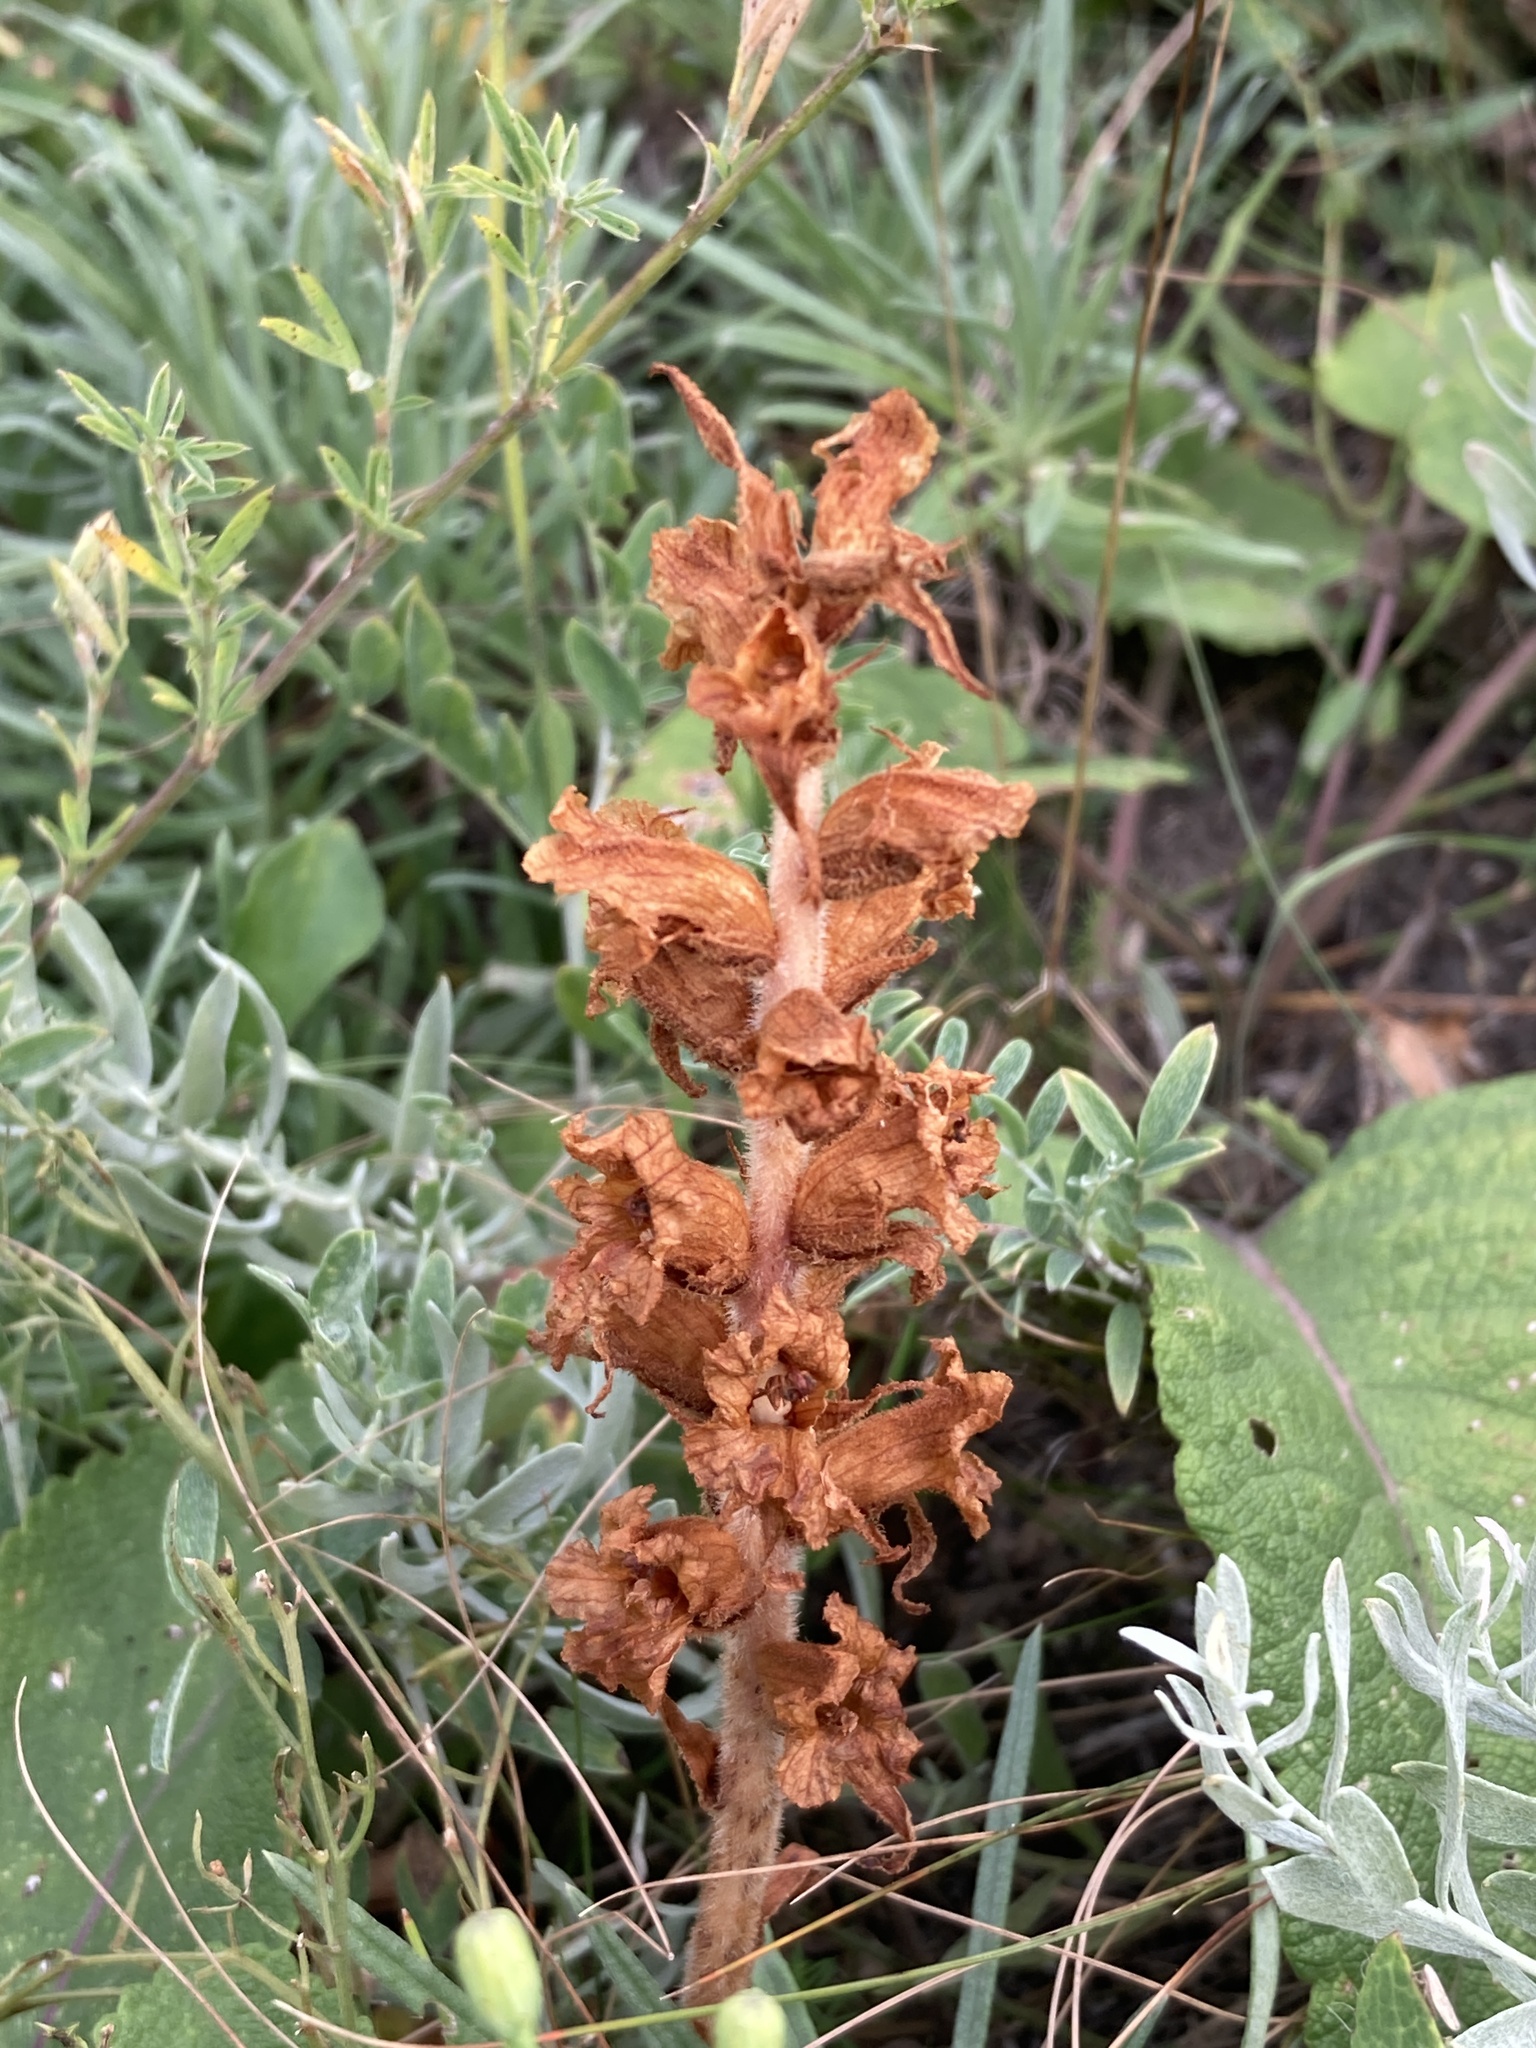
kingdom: Plantae
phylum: Tracheophyta
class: Magnoliopsida
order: Lamiales
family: Orobanchaceae
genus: Orobanche
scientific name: Orobanche alba
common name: Thyme broomrape
